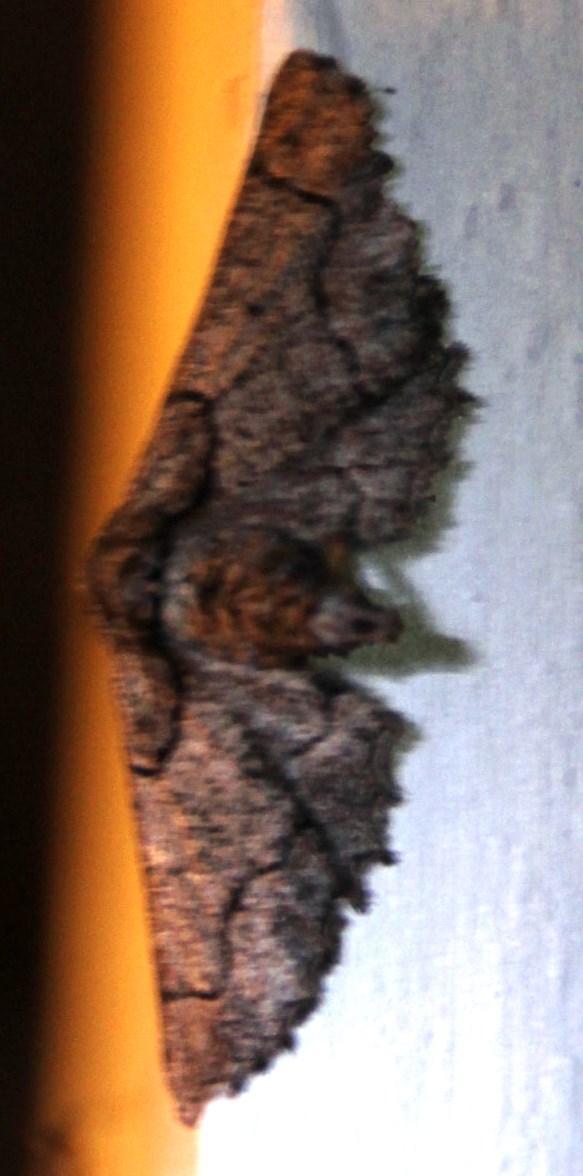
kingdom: Animalia
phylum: Arthropoda
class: Insecta
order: Lepidoptera
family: Geometridae
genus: Omphalucha
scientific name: Omphalucha maturnaria
